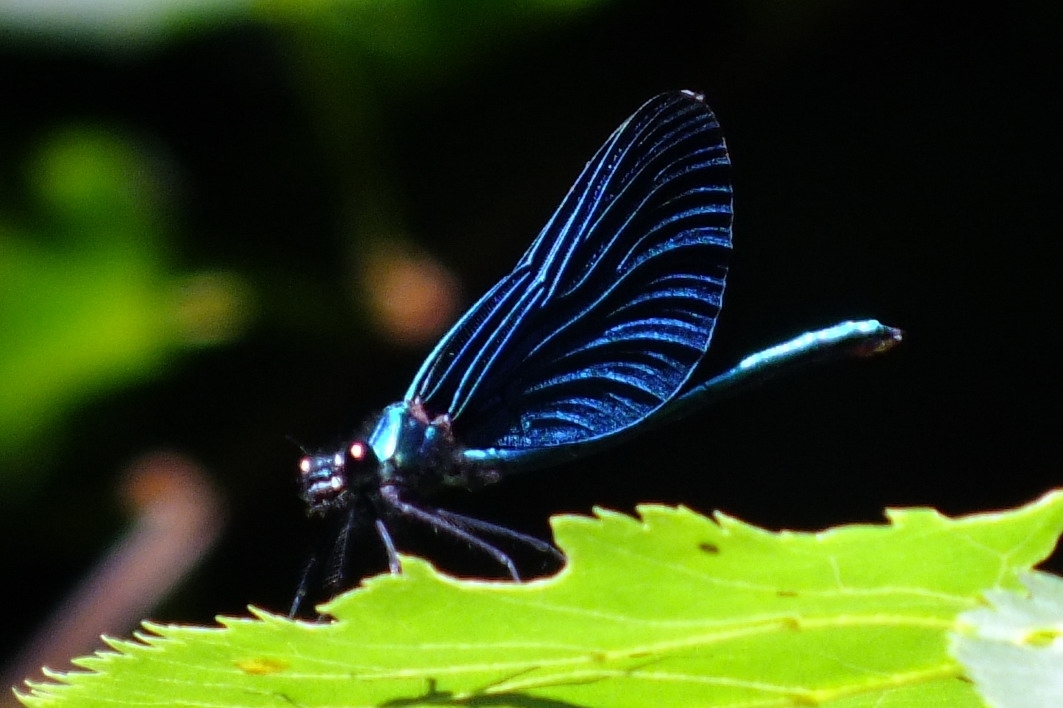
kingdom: Animalia
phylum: Arthropoda
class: Insecta
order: Odonata
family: Calopterygidae
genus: Calopteryx
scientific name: Calopteryx virgo
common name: Beautiful demoiselle
